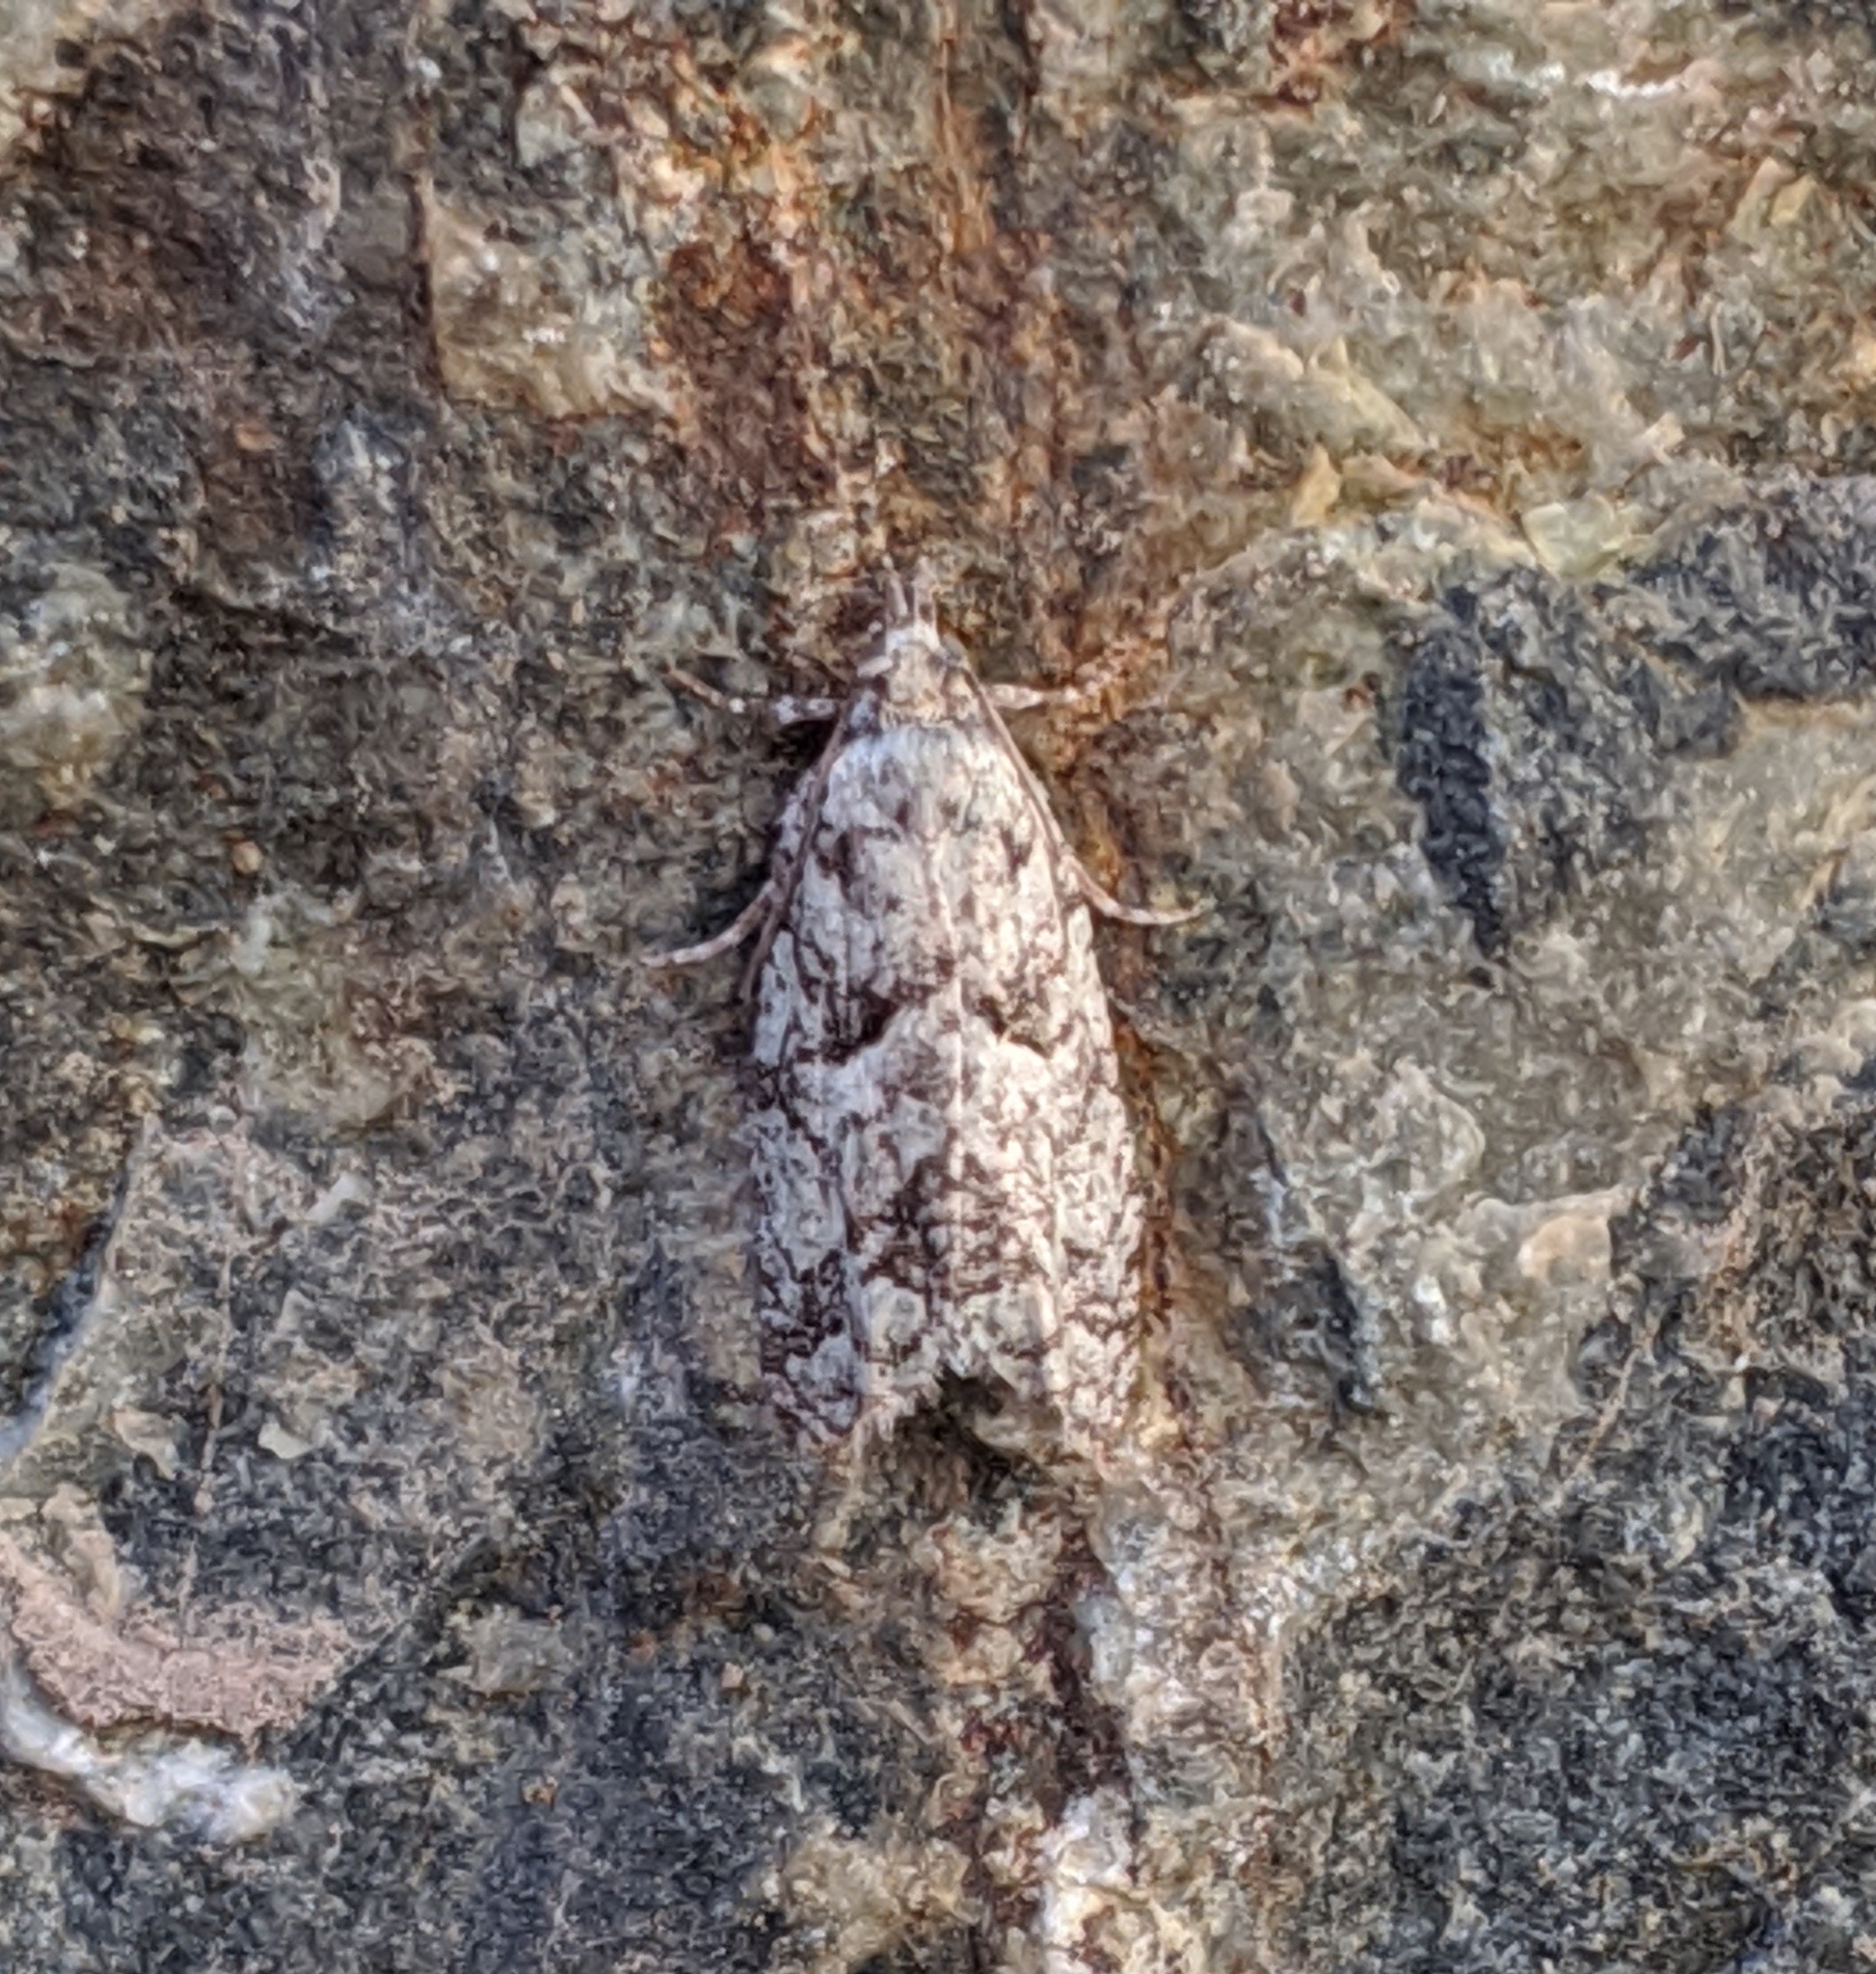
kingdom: Animalia
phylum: Arthropoda
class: Insecta
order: Lepidoptera
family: Tortricidae
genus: Epinotia
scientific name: Epinotia hopkinsana
